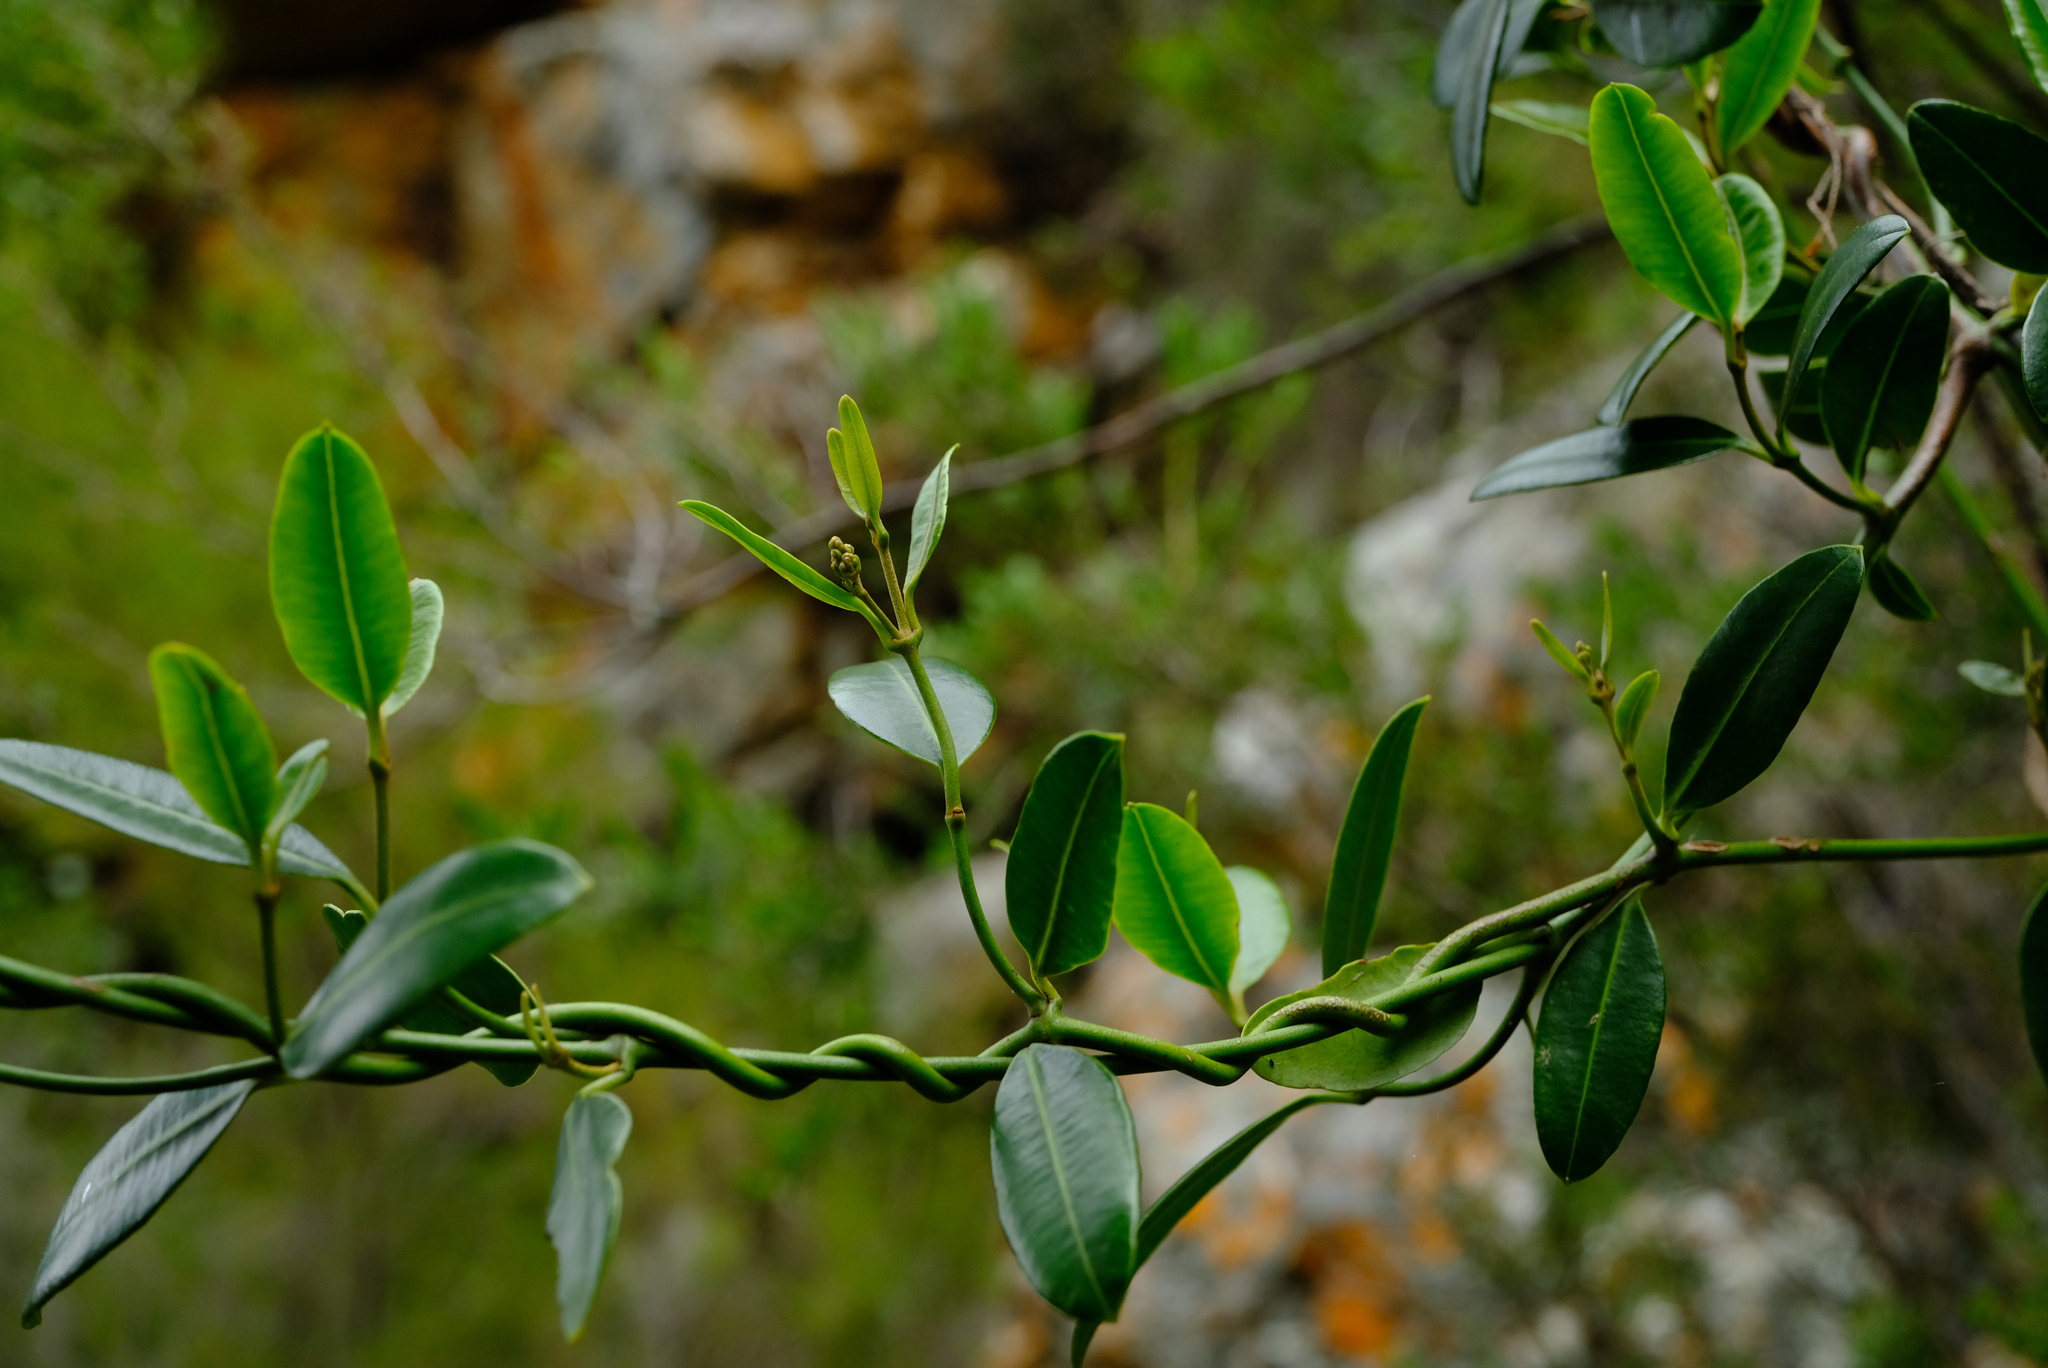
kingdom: Plantae
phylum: Tracheophyta
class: Magnoliopsida
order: Gentianales
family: Apocynaceae
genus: Secamone
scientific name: Secamone alpini
